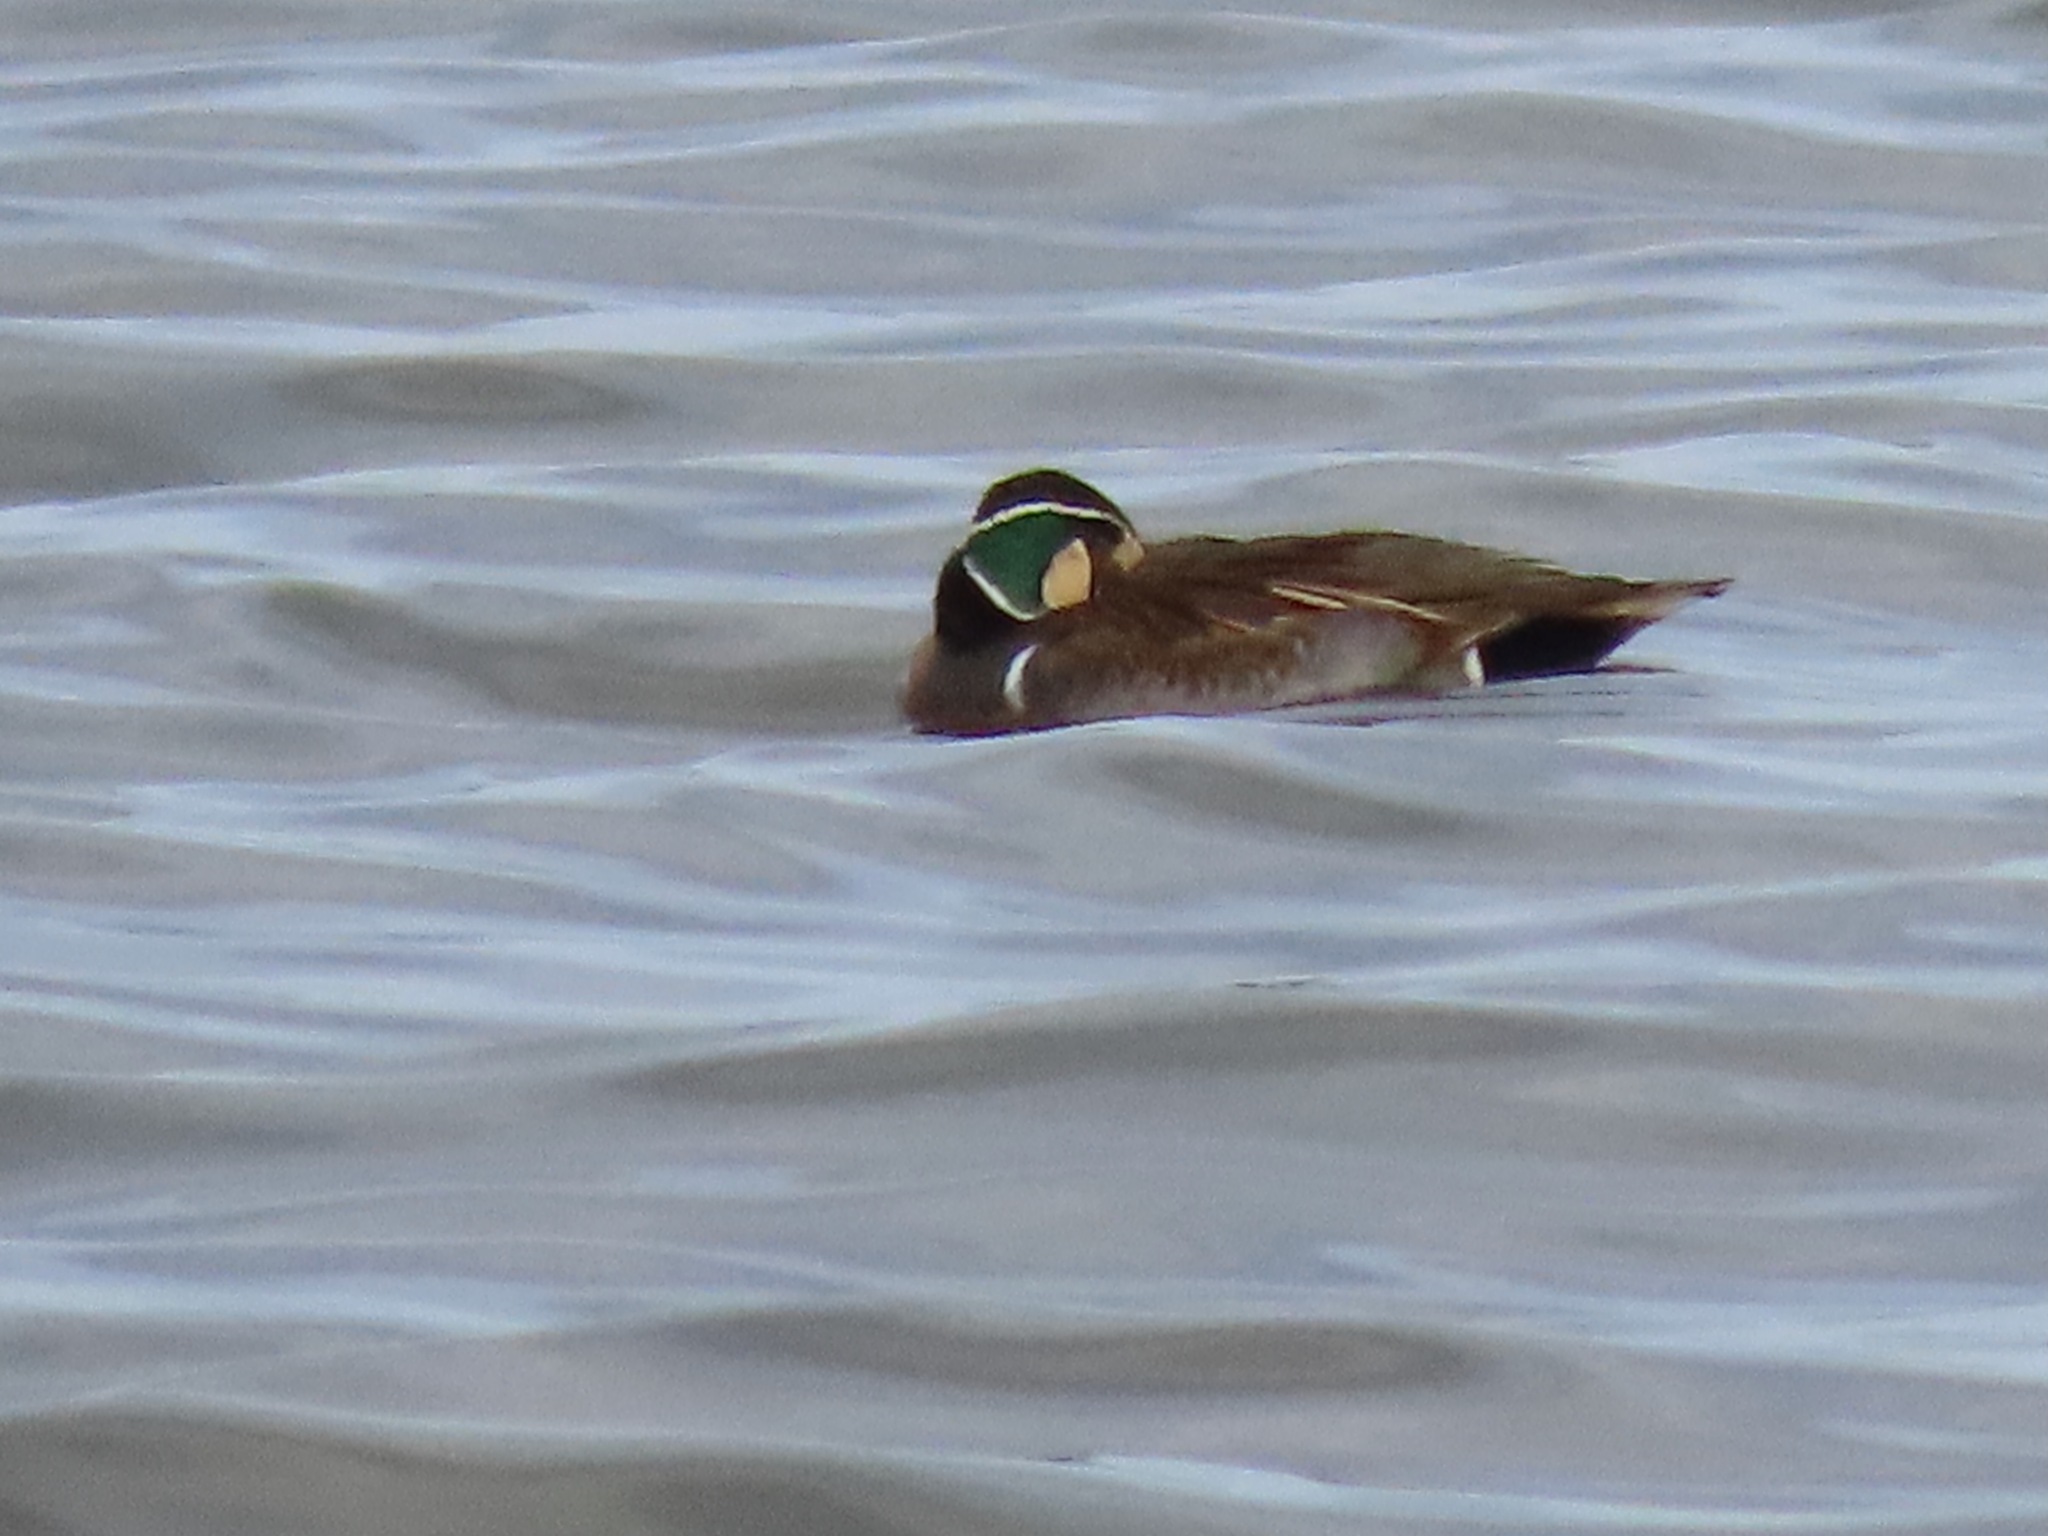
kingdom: Animalia
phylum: Chordata
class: Aves
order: Anseriformes
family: Anatidae
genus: Sibirionetta
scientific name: Sibirionetta formosa
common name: Baikal teal
